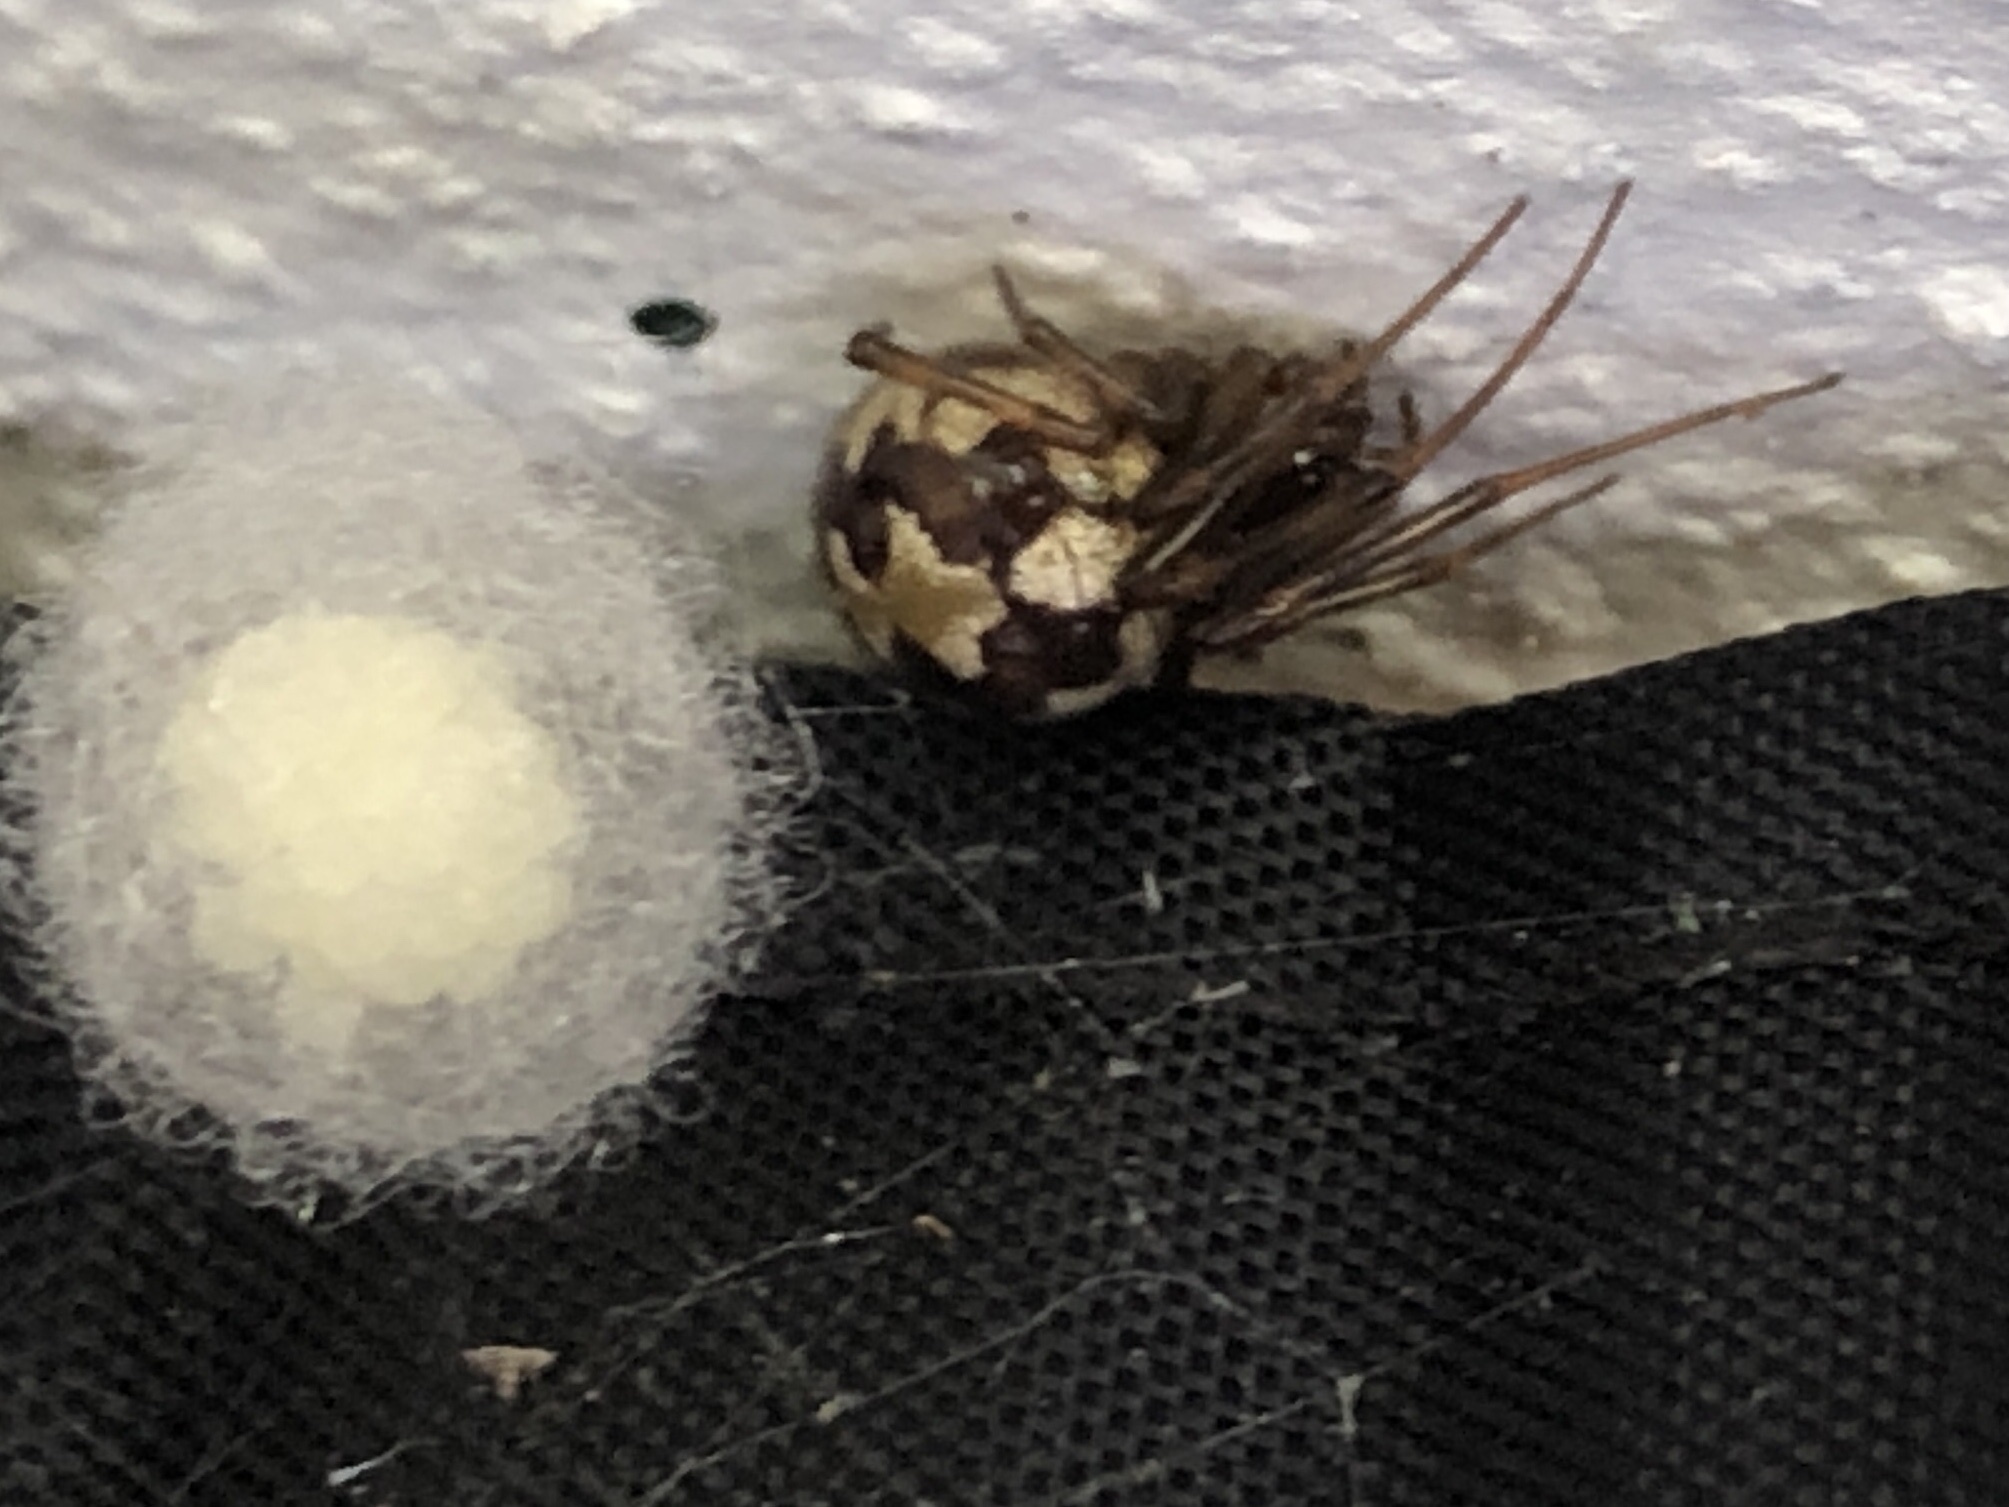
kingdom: Animalia
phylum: Arthropoda
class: Arachnida
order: Araneae
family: Theridiidae
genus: Steatoda
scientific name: Steatoda triangulosa
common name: Triangulate bud spider
